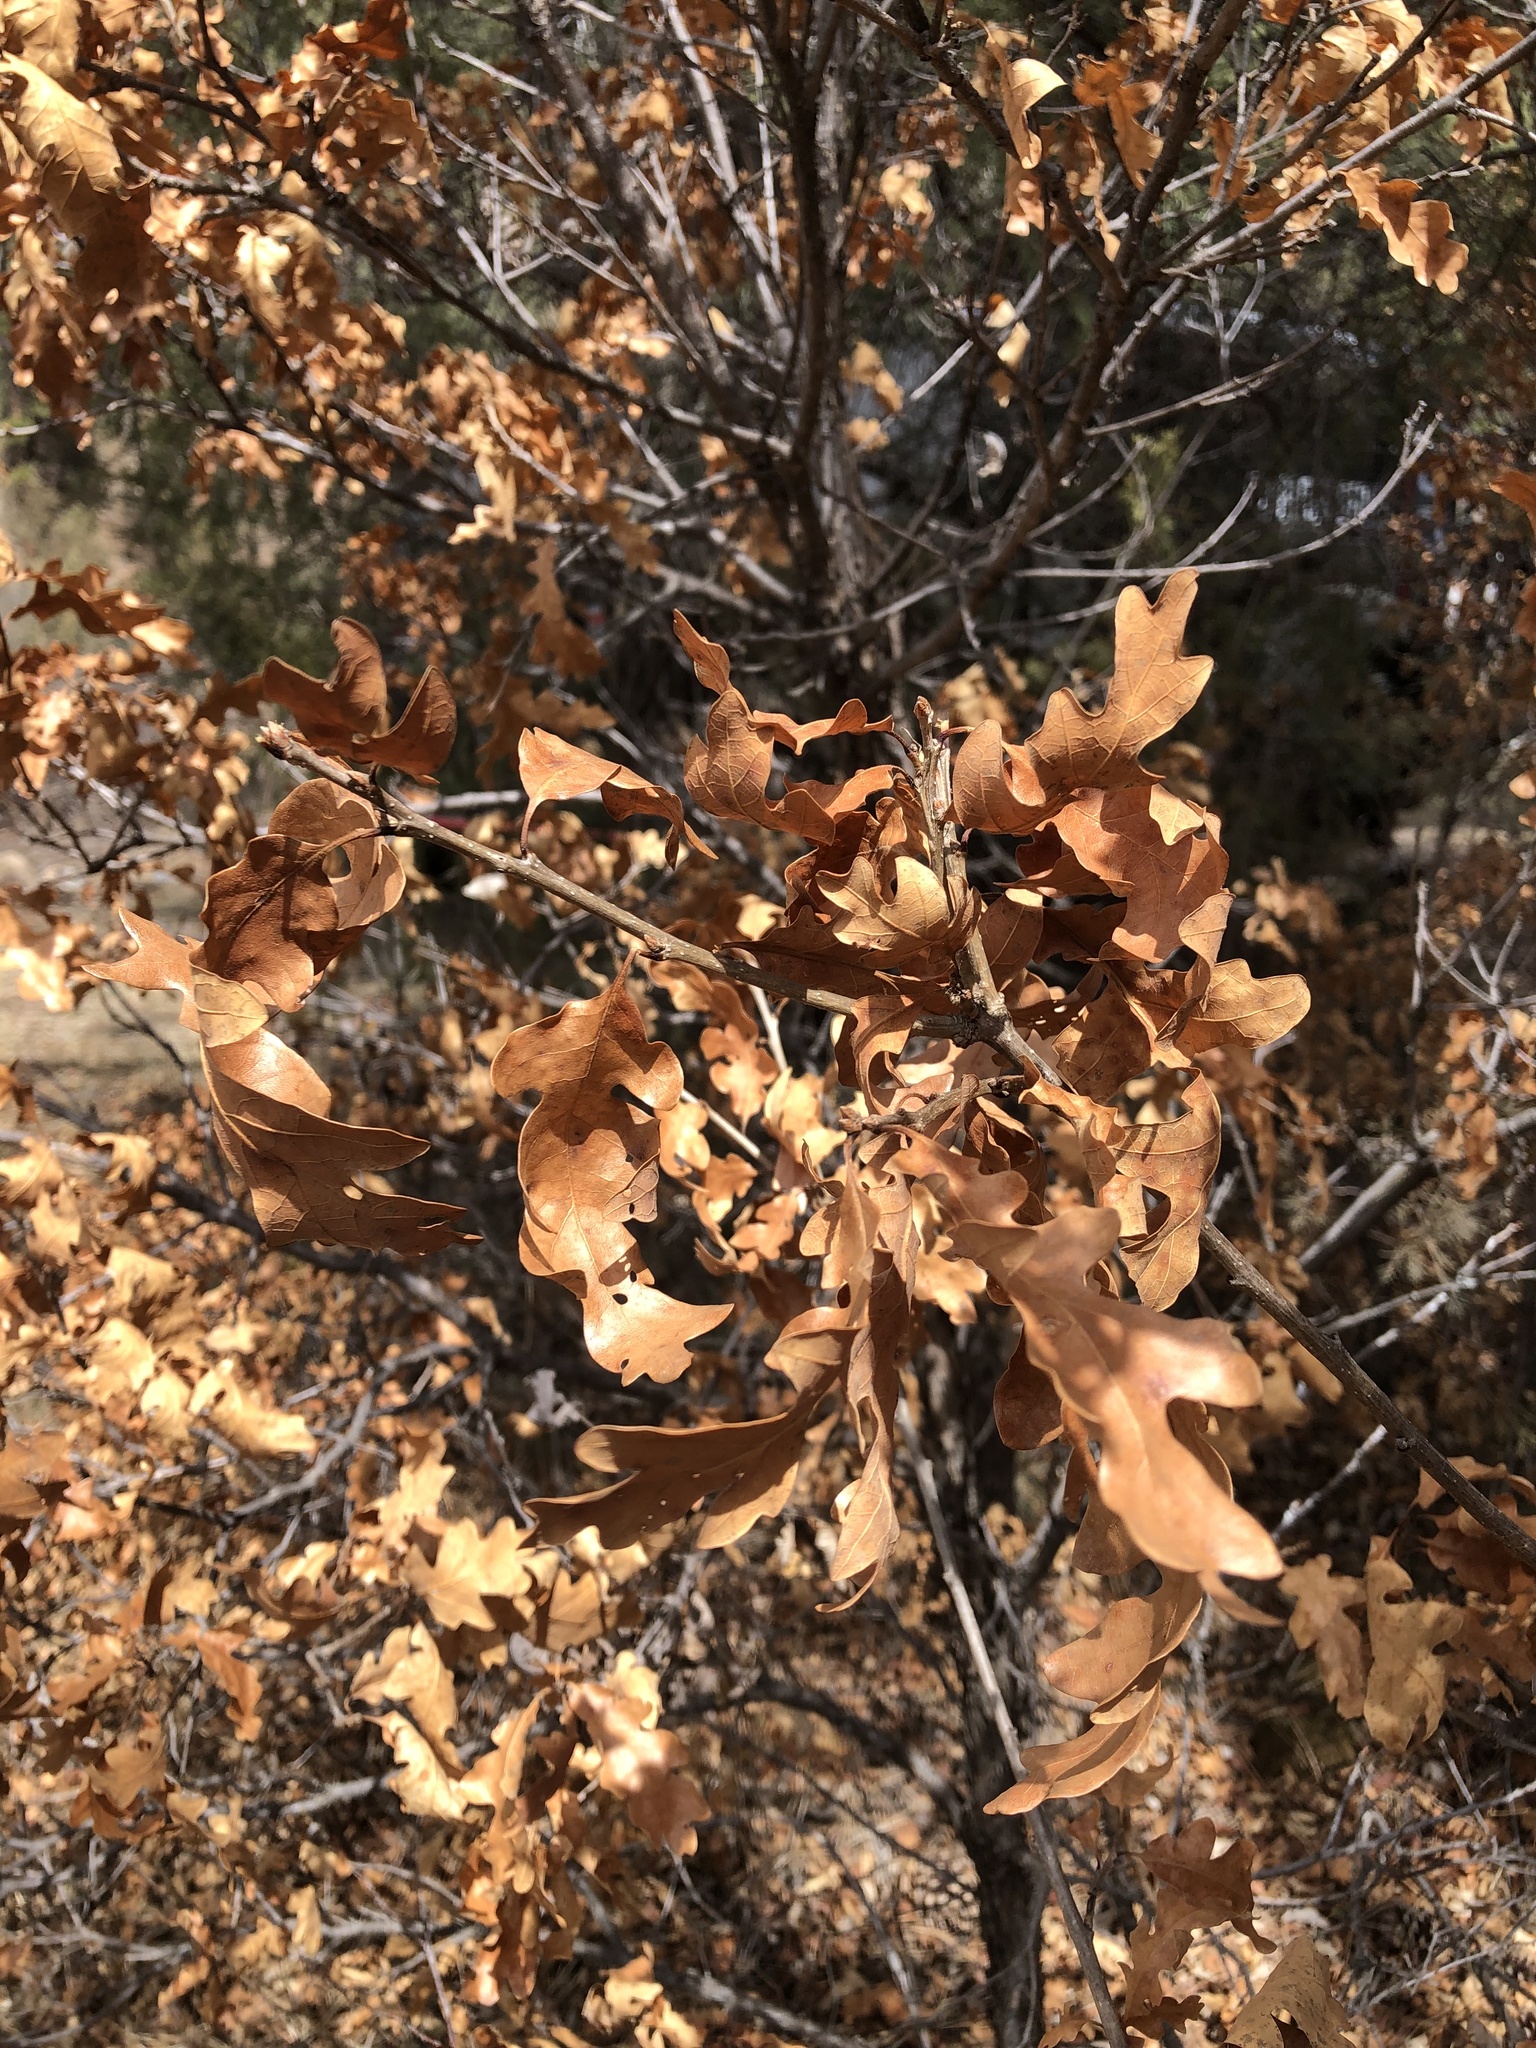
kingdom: Plantae
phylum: Tracheophyta
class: Magnoliopsida
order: Fagales
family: Fagaceae
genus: Quercus
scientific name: Quercus gambelii
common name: Gambel oak
